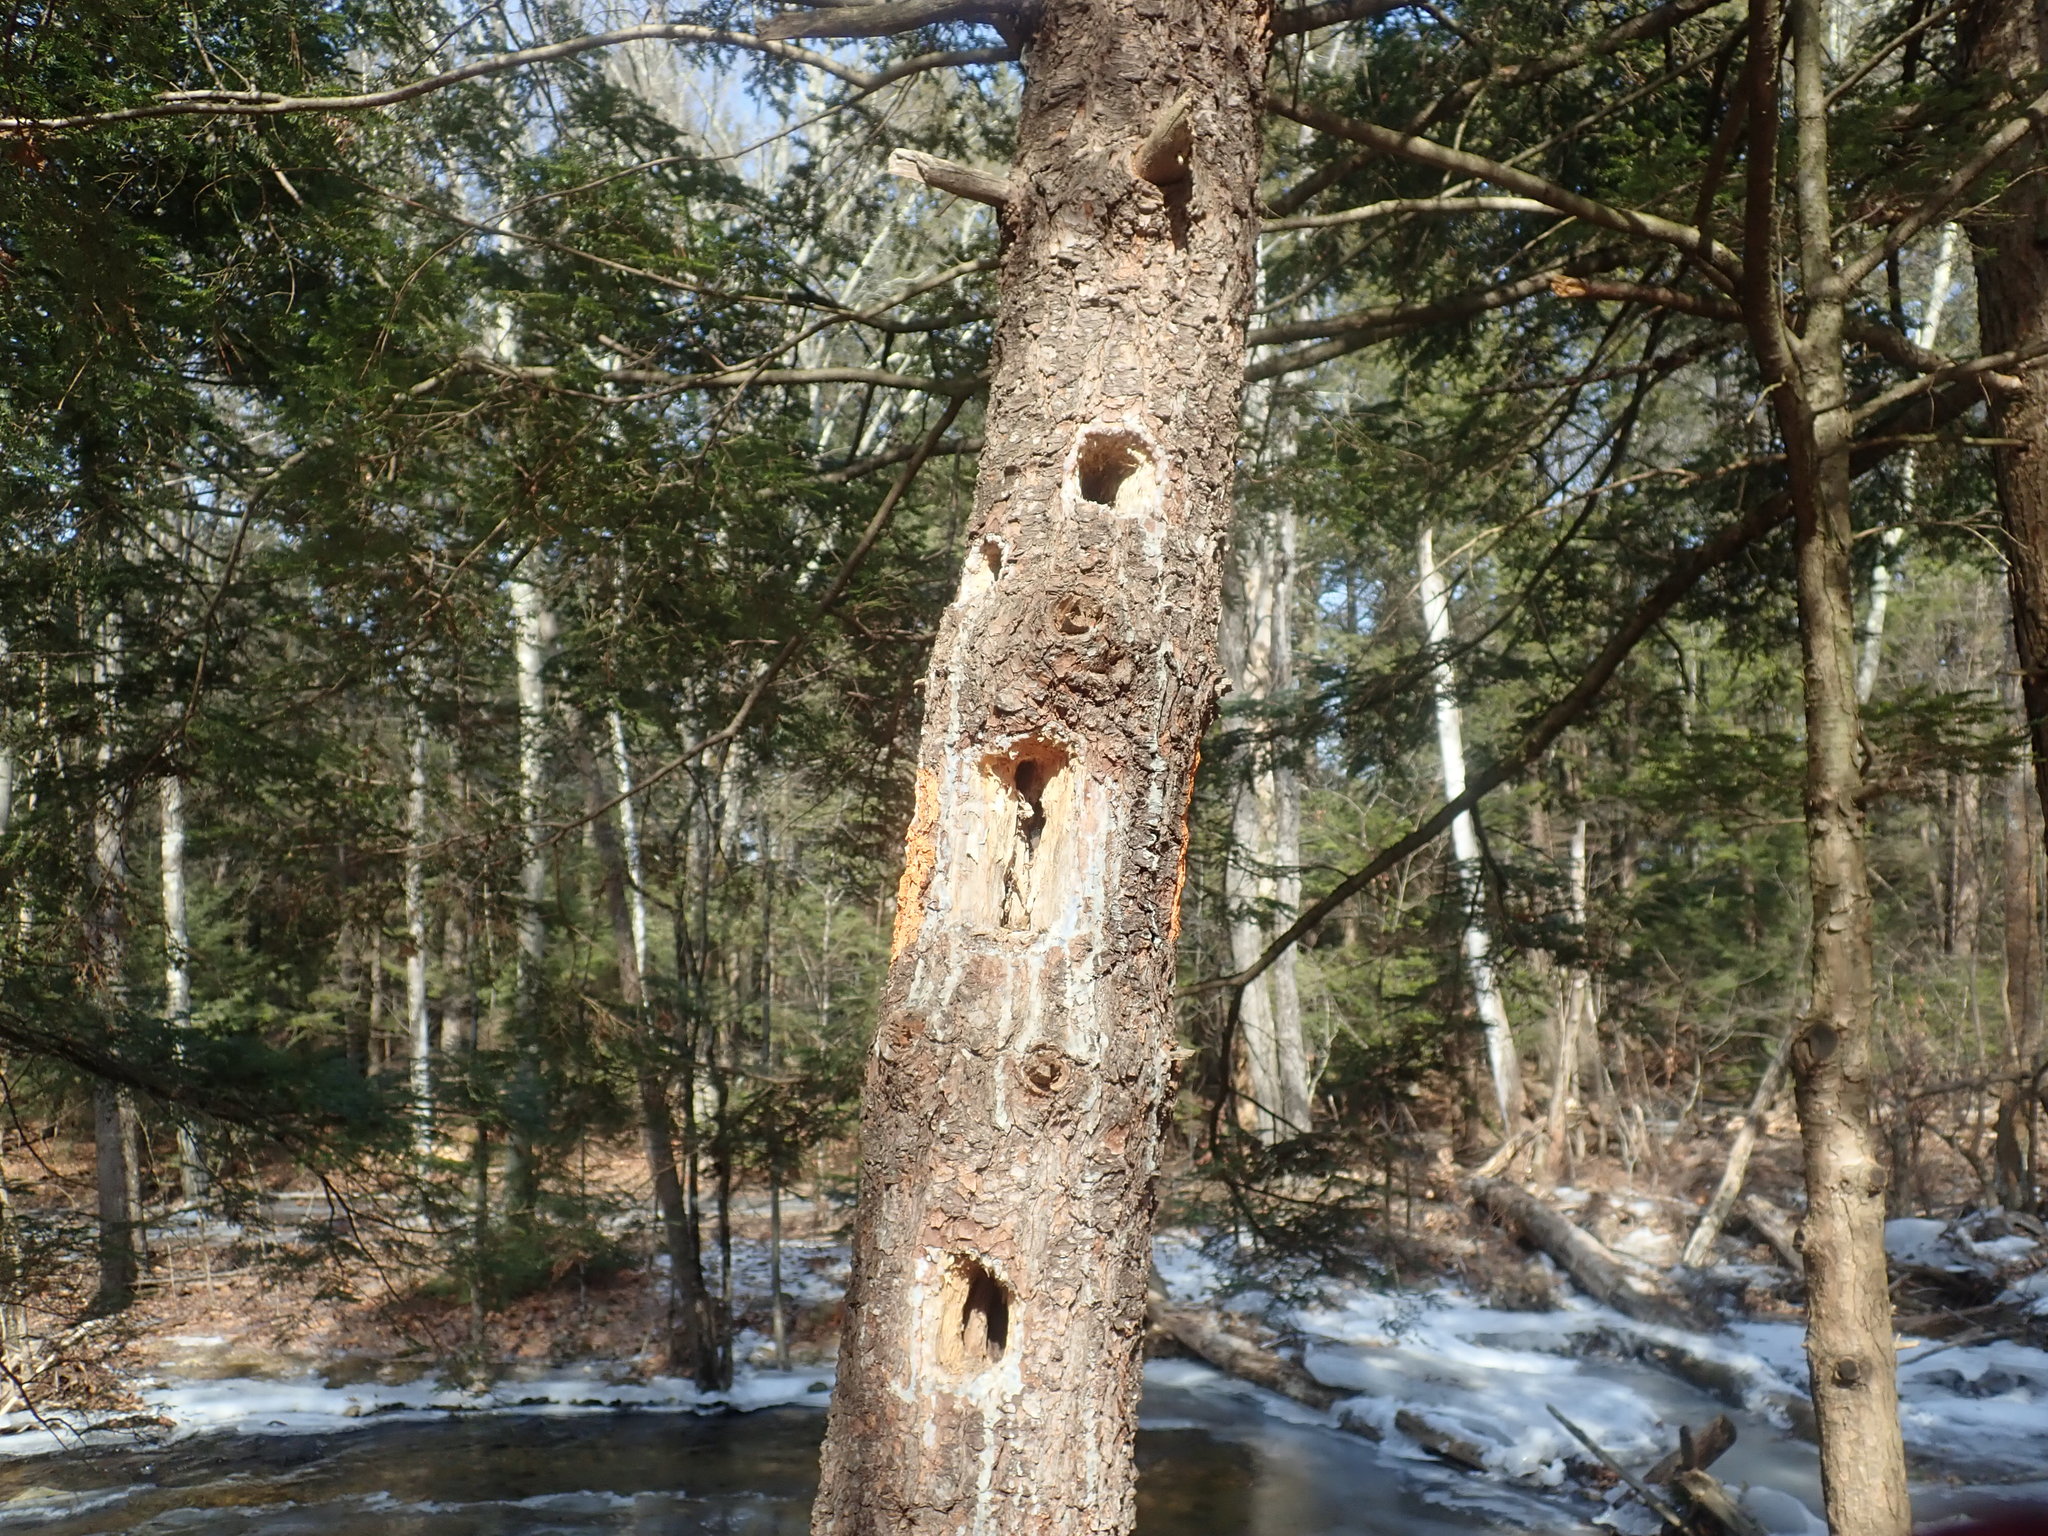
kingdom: Animalia
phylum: Chordata
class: Aves
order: Piciformes
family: Picidae
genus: Dryocopus
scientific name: Dryocopus pileatus
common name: Pileated woodpecker
